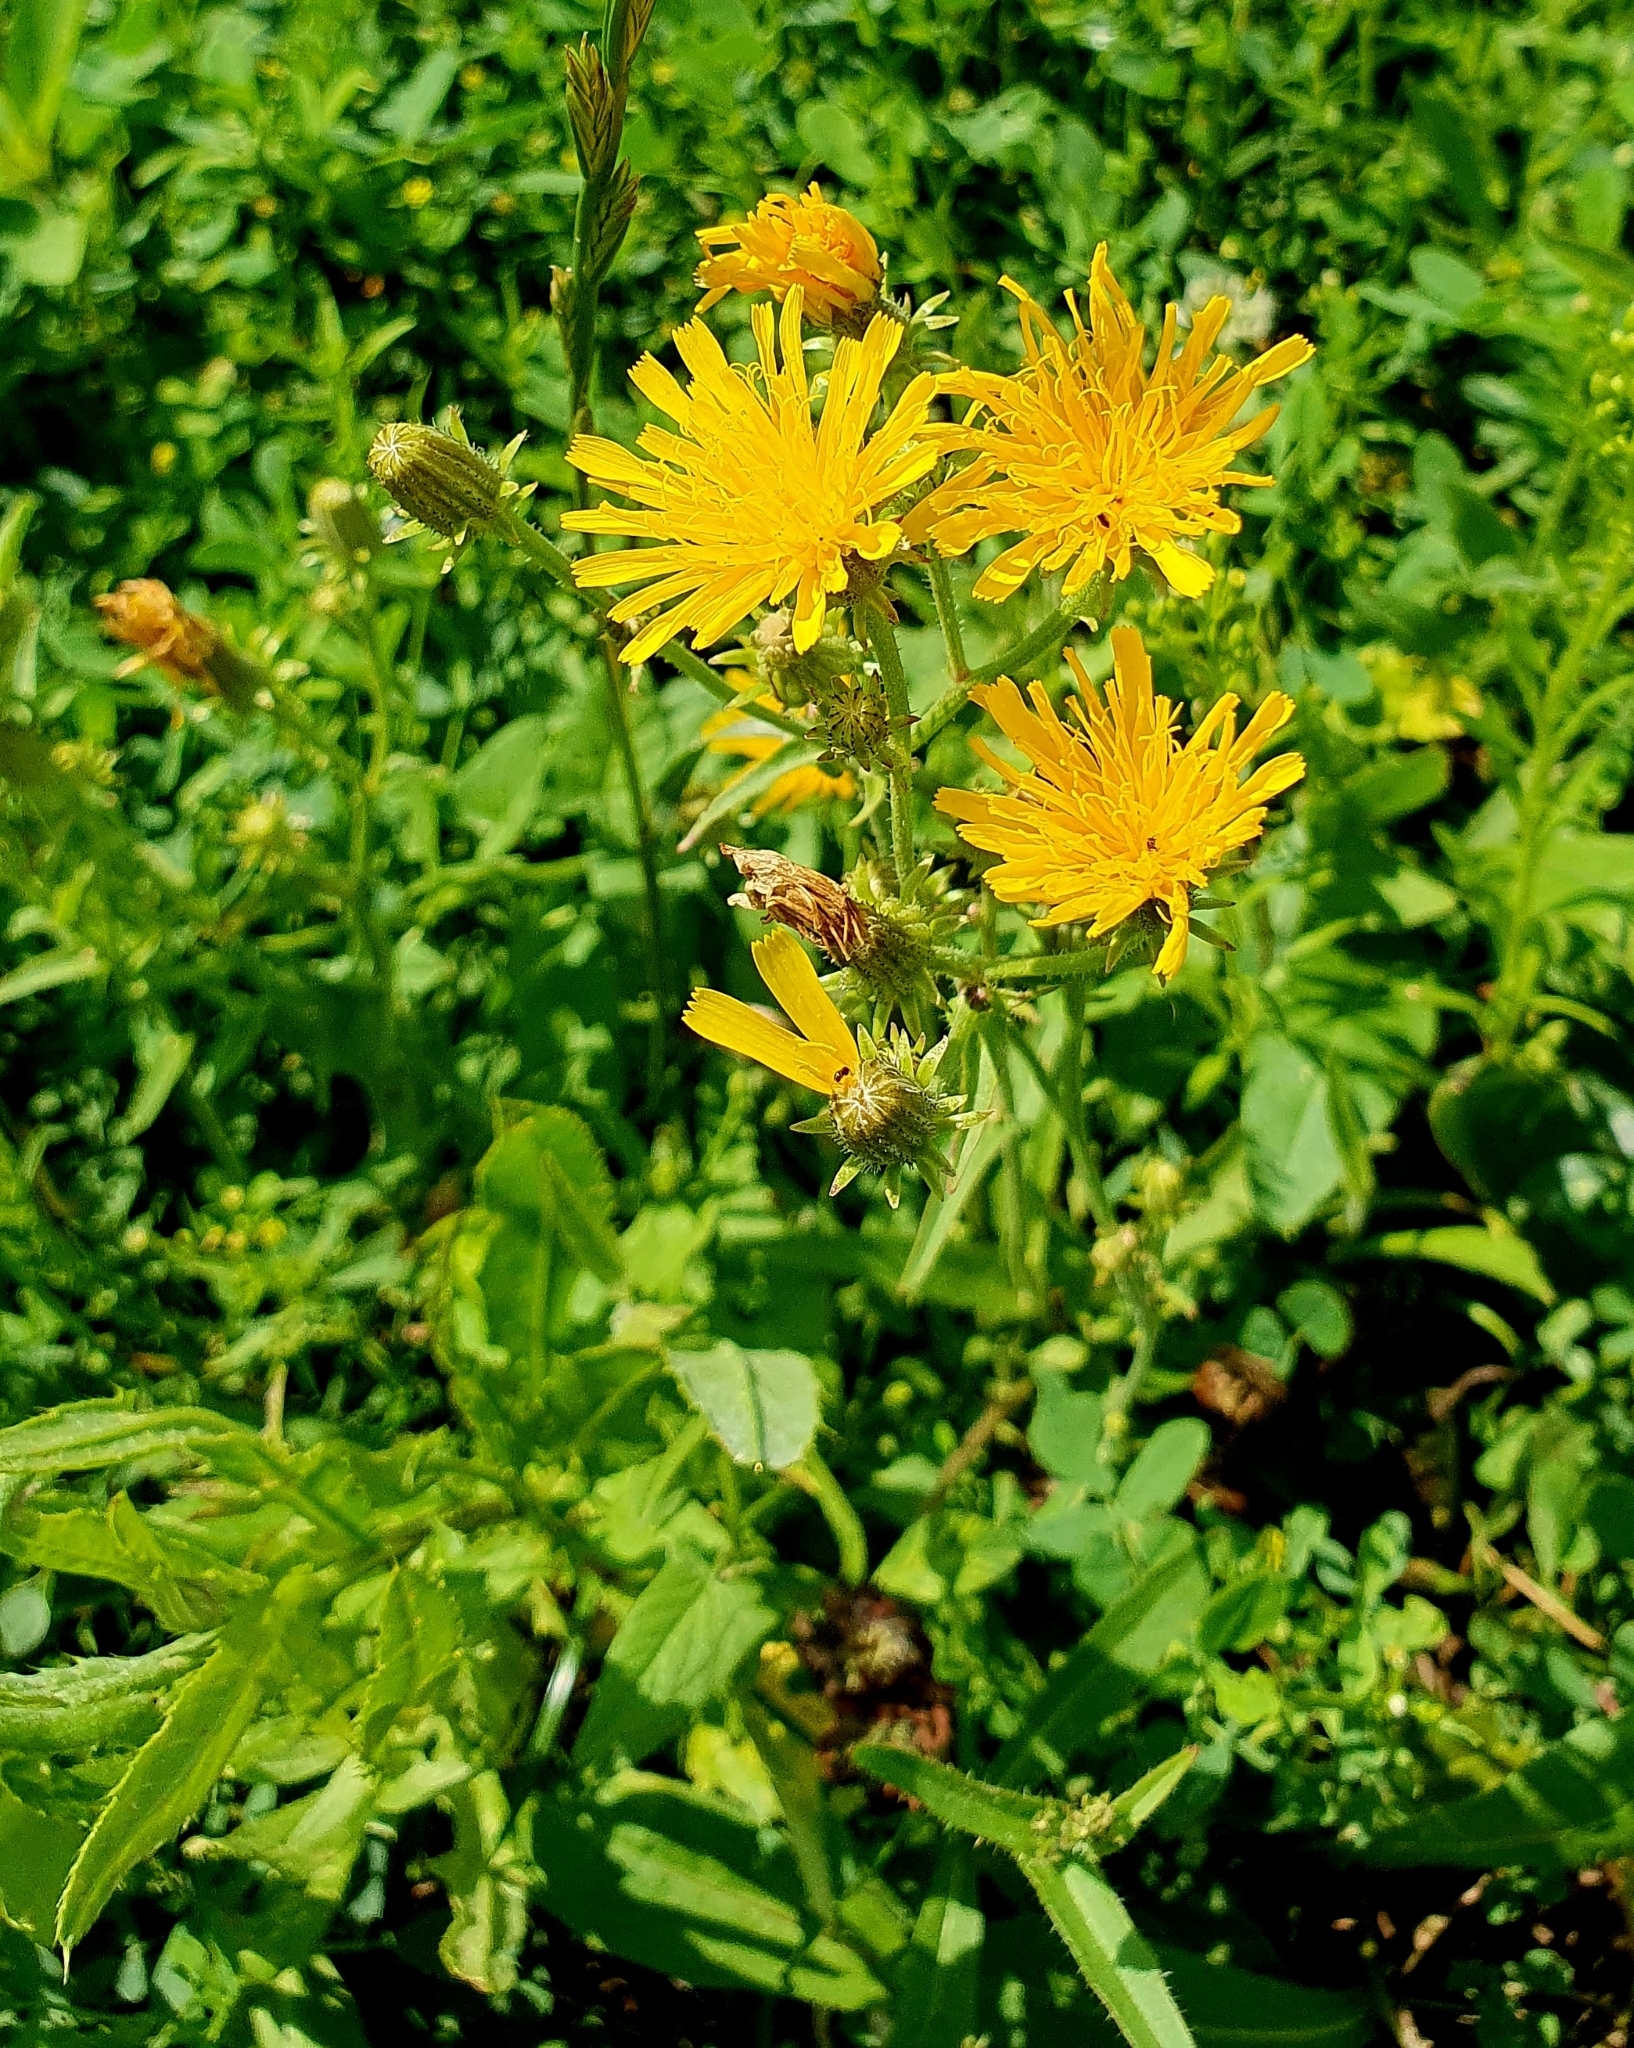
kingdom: Plantae
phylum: Tracheophyta
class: Magnoliopsida
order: Asterales
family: Asteraceae
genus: Picris
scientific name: Picris hieracioides
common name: Hawkweed oxtongue
